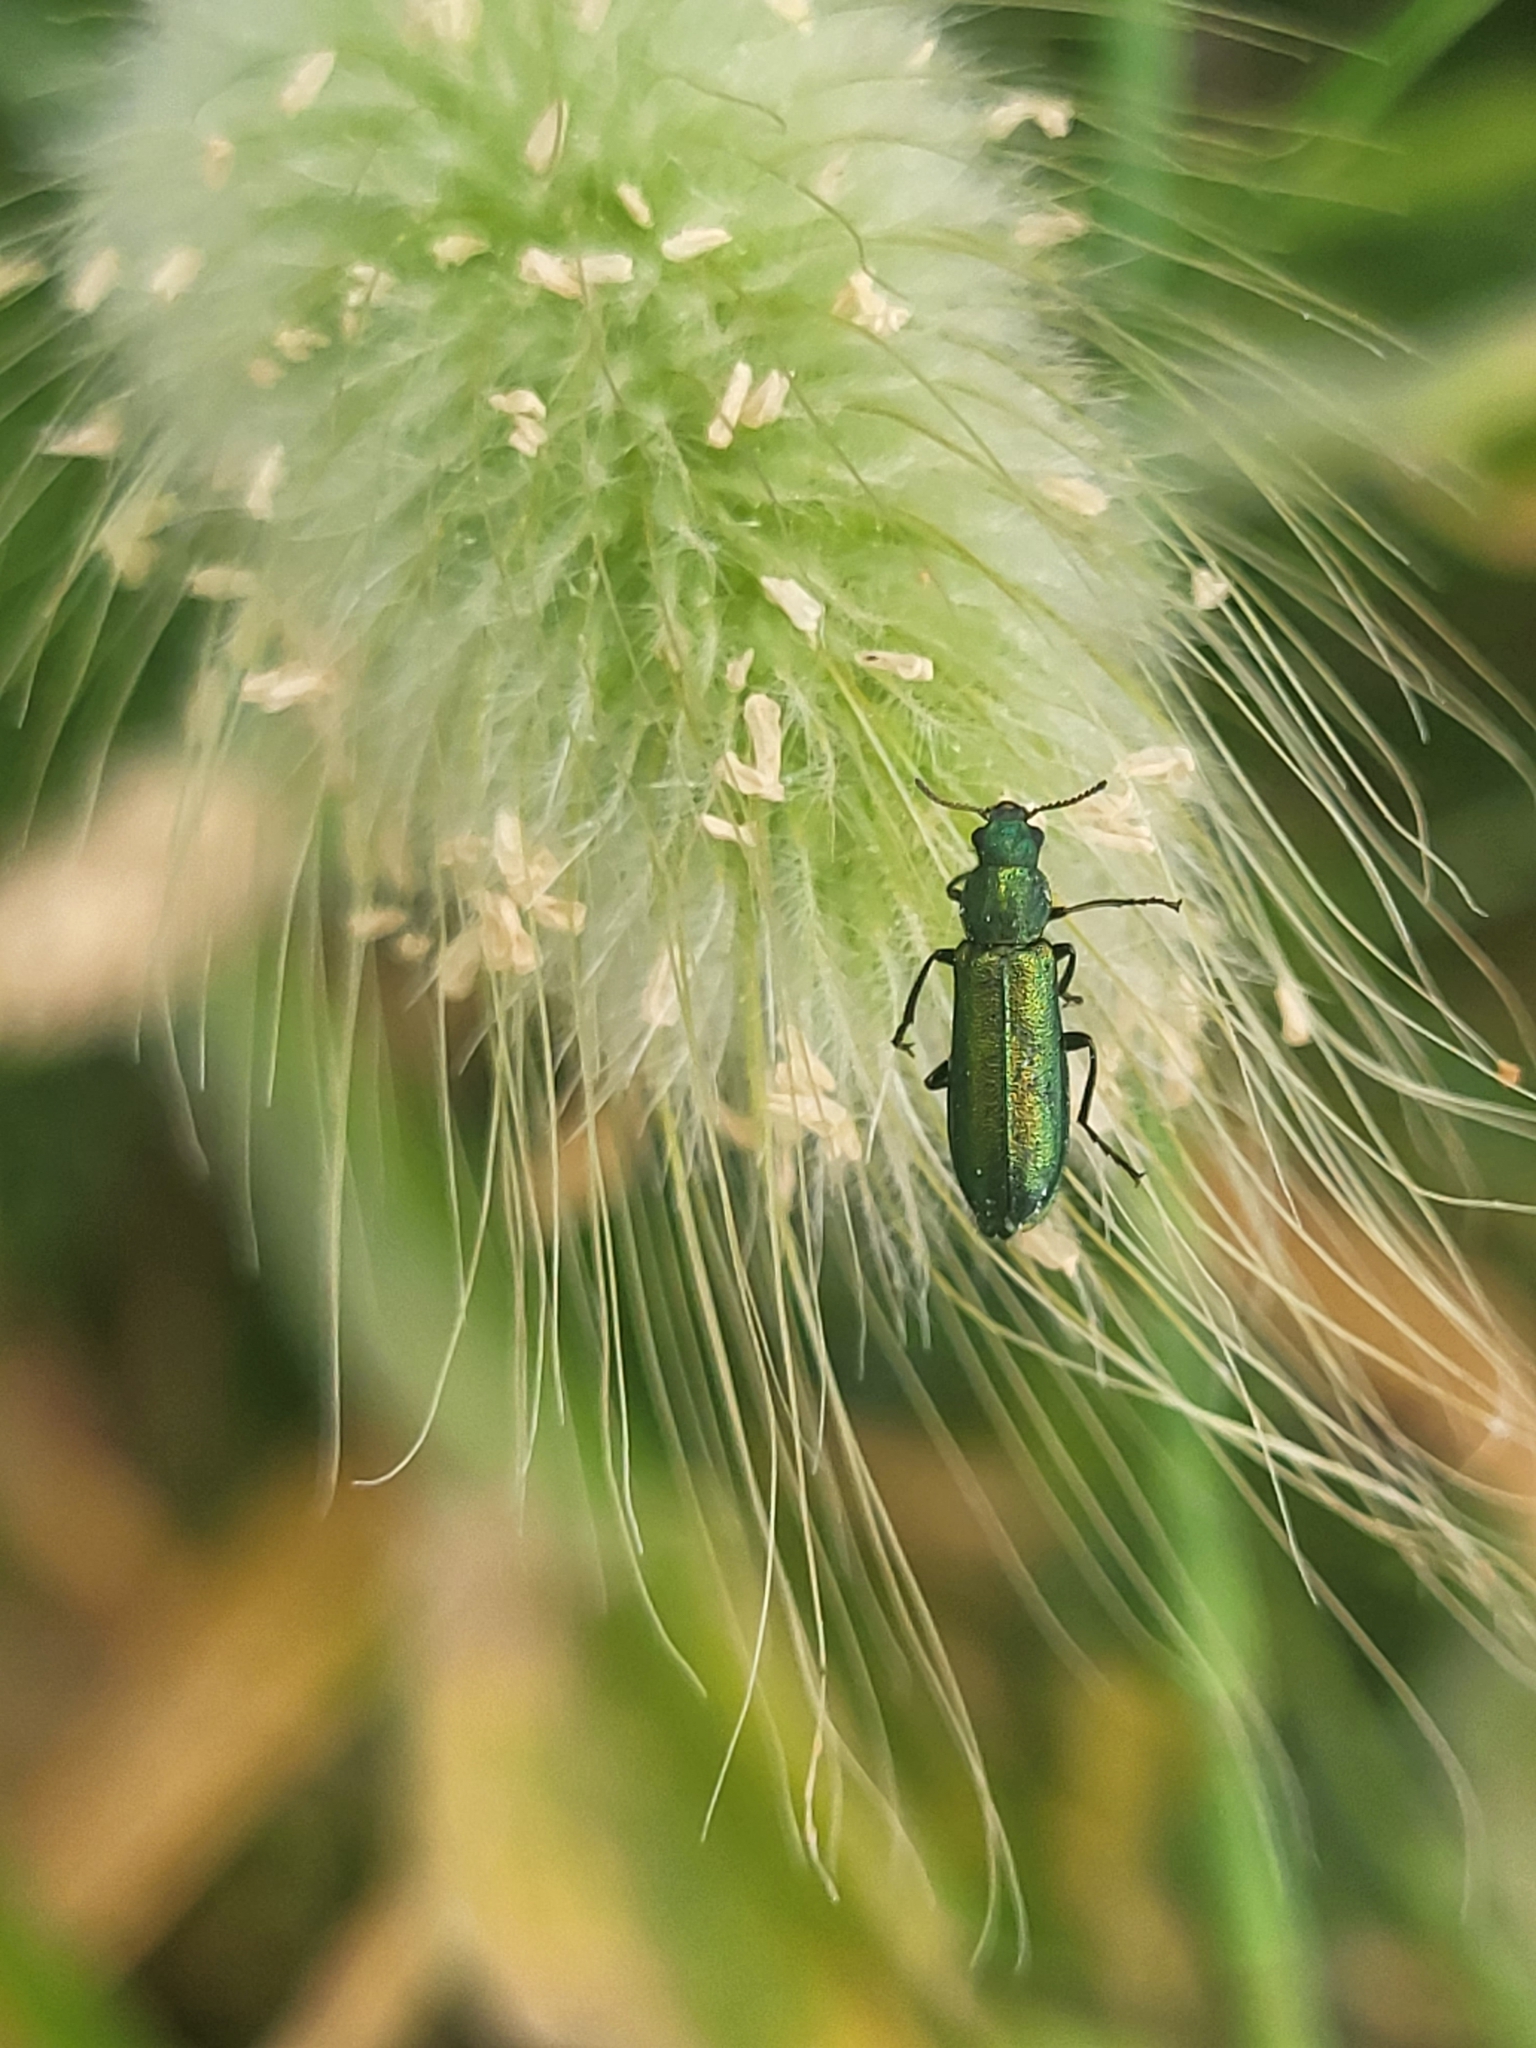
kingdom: Animalia
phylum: Arthropoda
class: Insecta
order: Coleoptera
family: Dasytidae
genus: Psilothrix
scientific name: Psilothrix viridicoerulea
